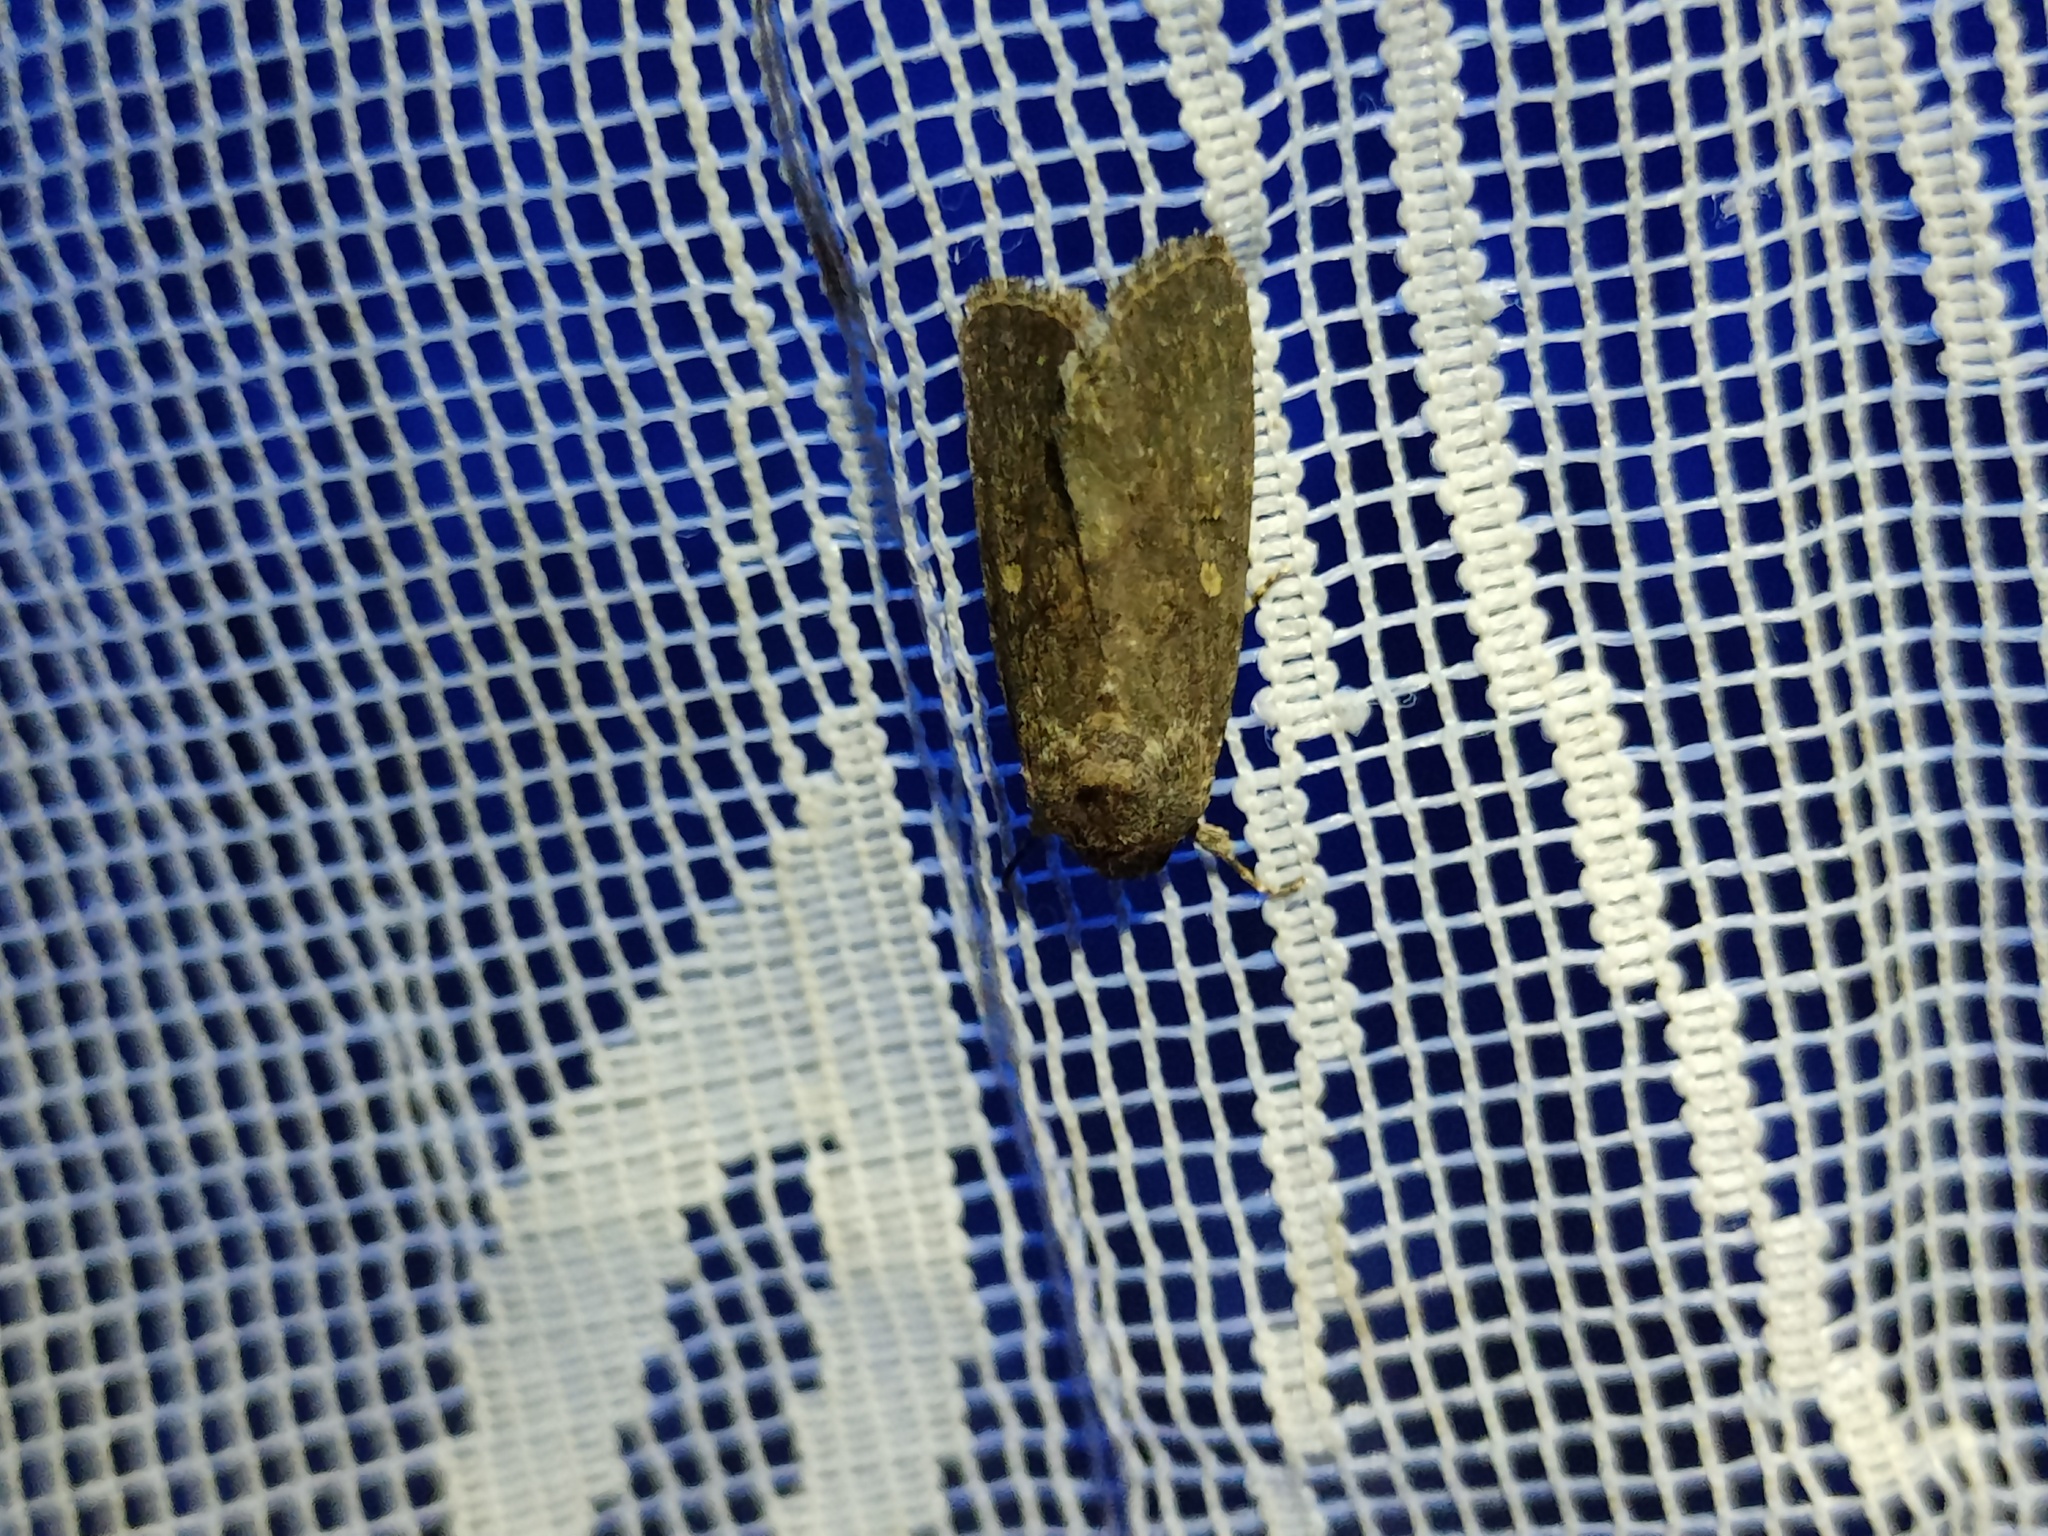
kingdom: Animalia
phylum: Arthropoda
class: Insecta
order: Lepidoptera
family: Noctuidae
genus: Spodoptera
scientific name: Spodoptera cilium
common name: Dark mottled willow
